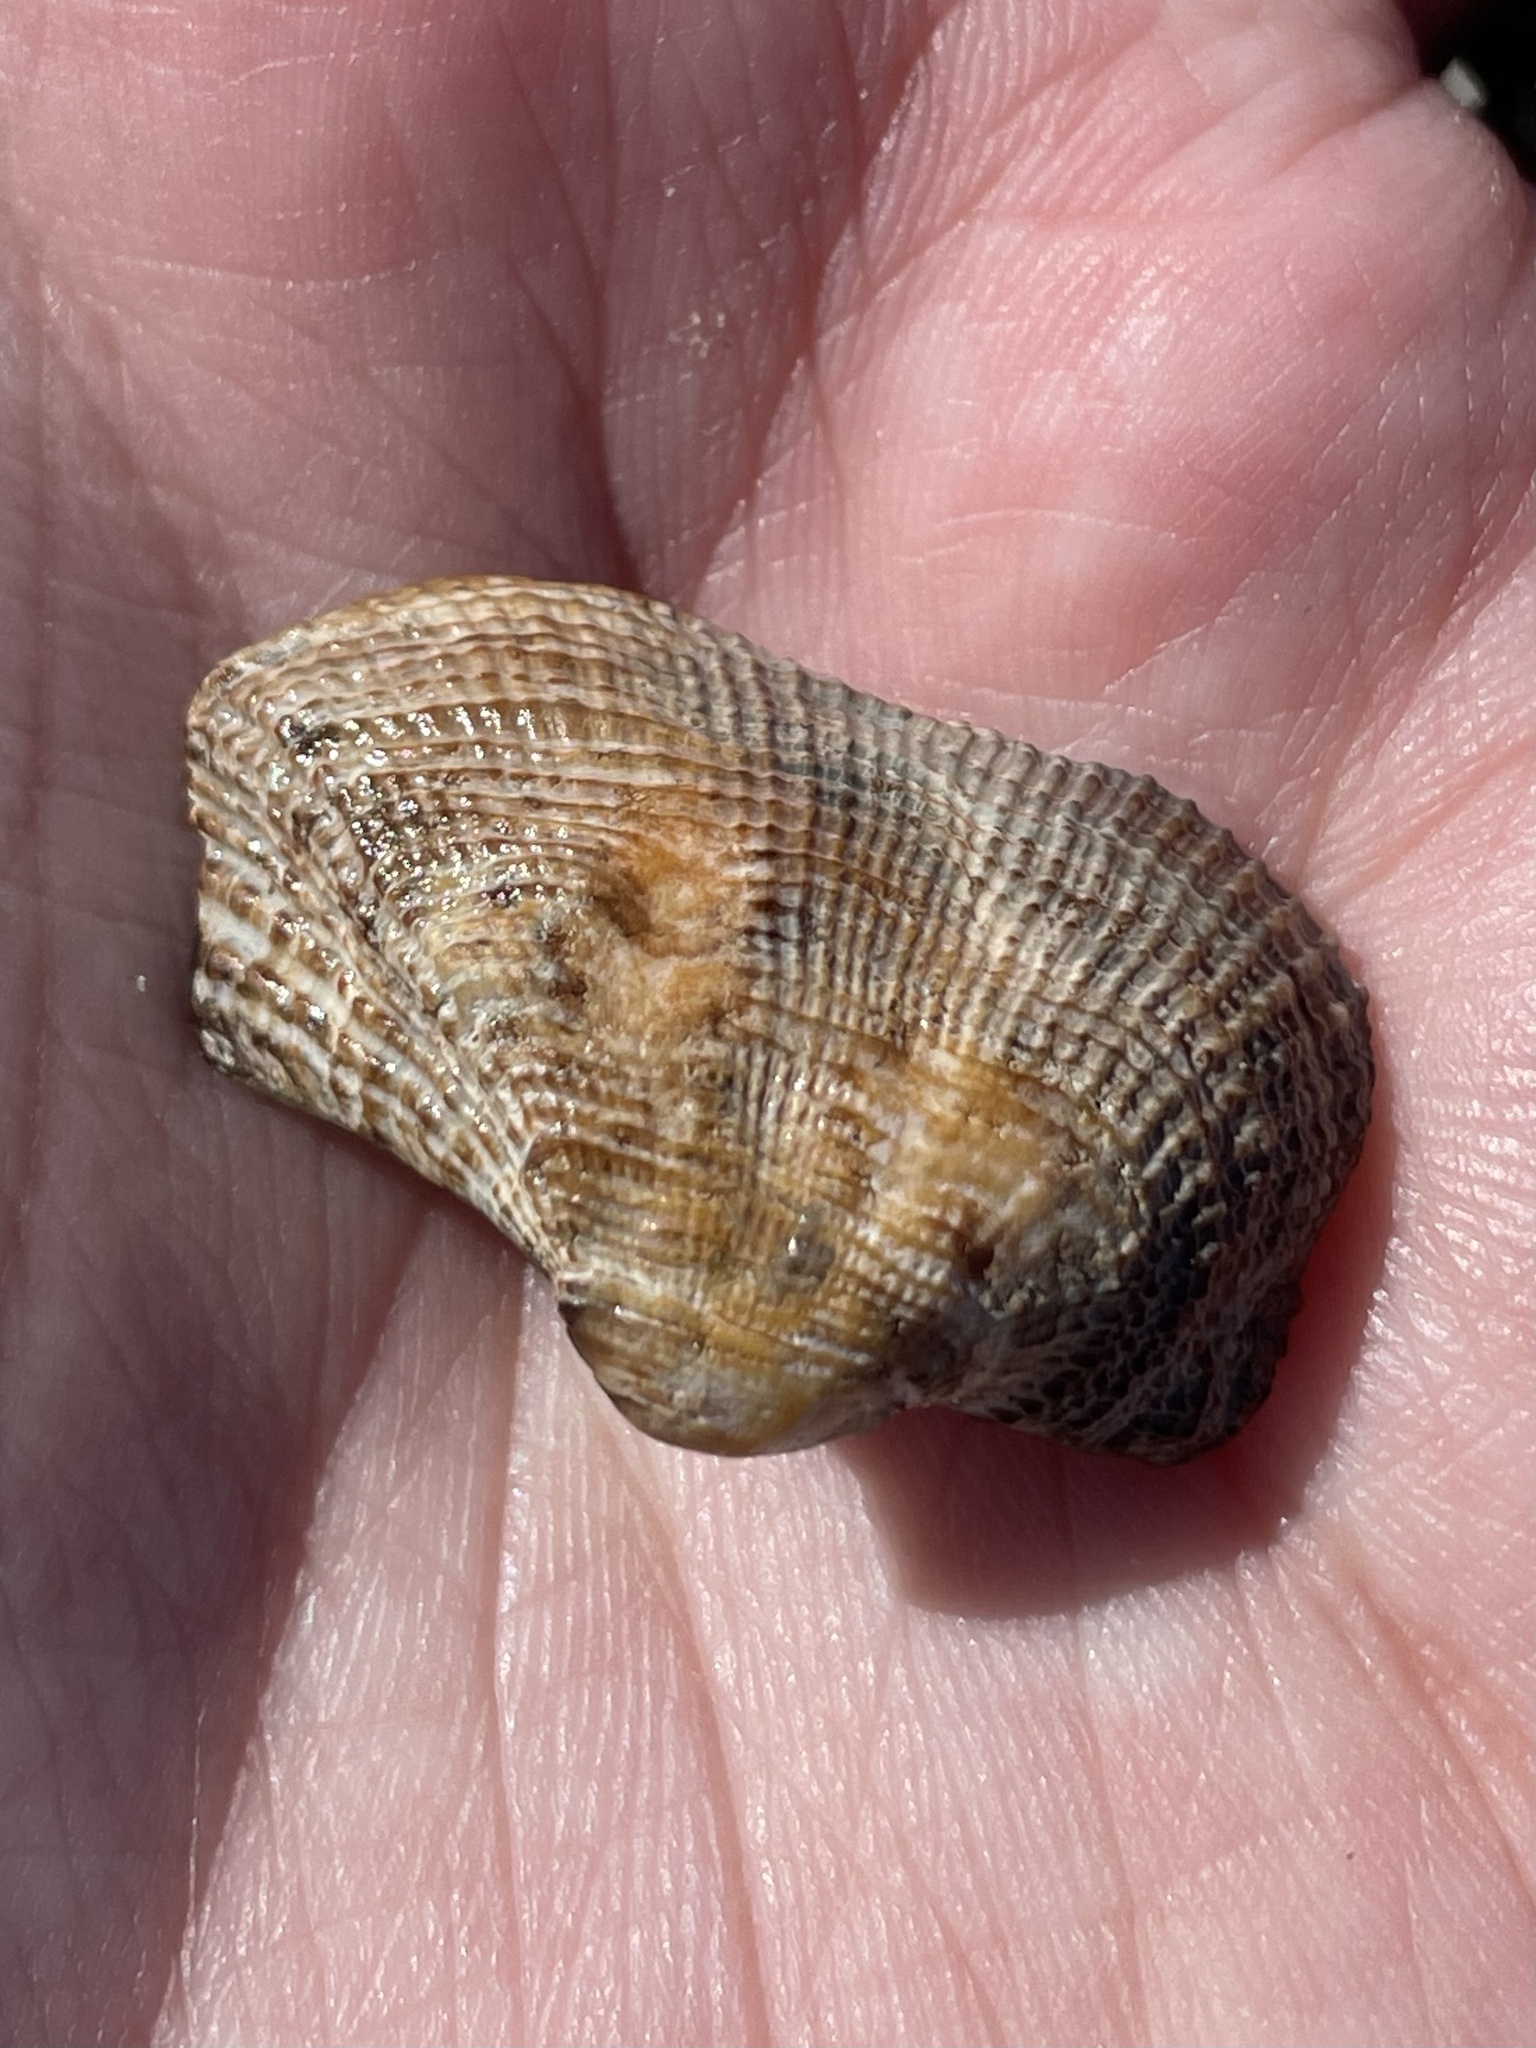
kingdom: Animalia
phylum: Mollusca
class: Bivalvia
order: Arcida
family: Arcidae
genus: Lamarcka
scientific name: Lamarcka imbricata
